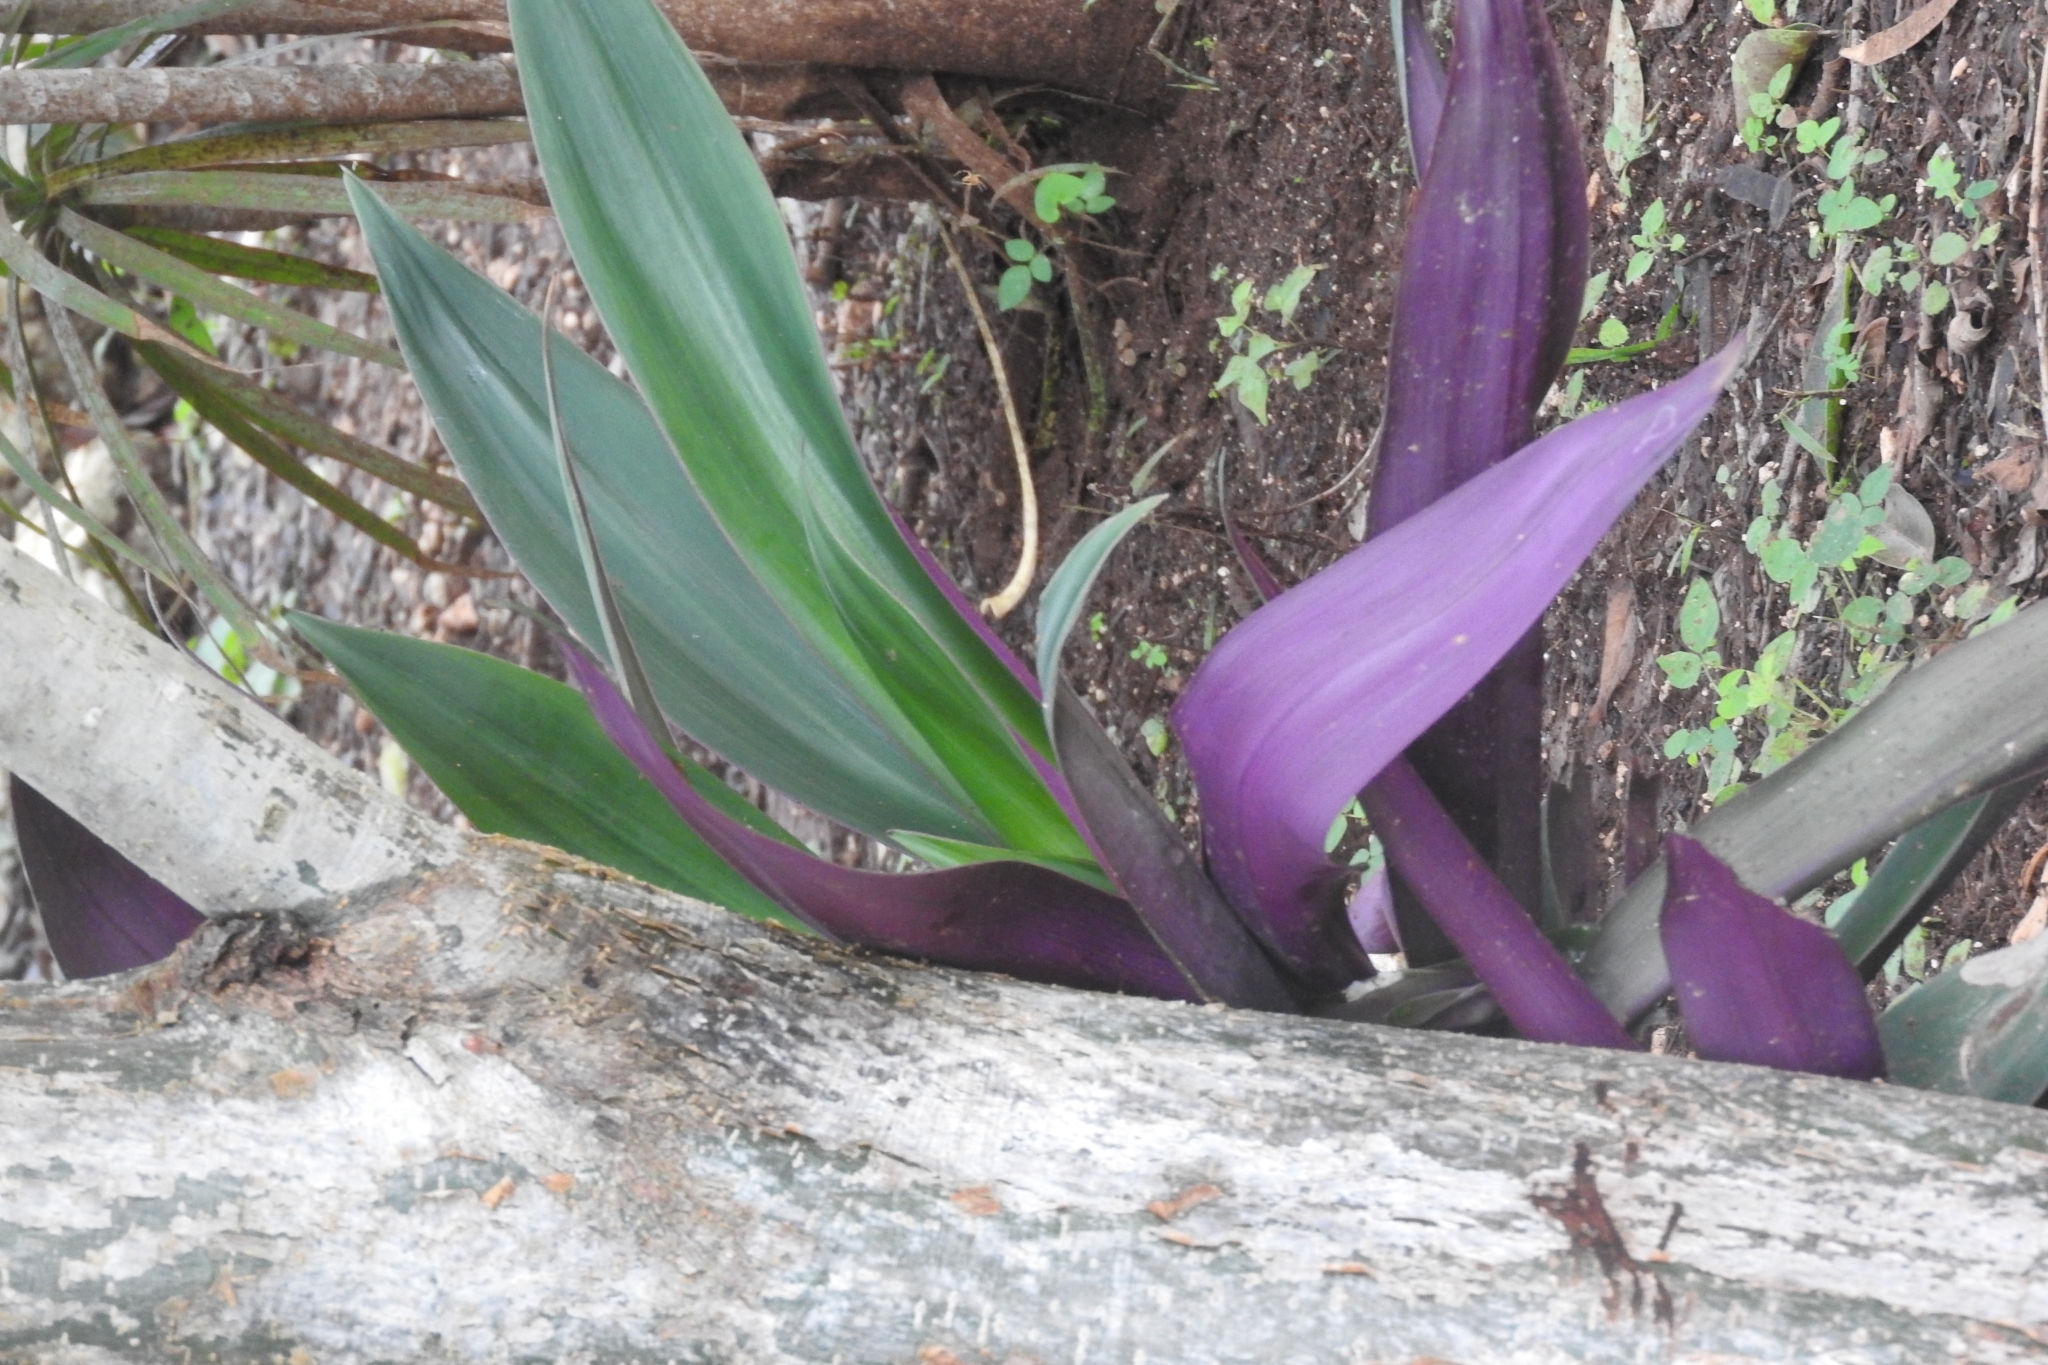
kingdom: Plantae
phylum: Tracheophyta
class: Liliopsida
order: Commelinales
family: Commelinaceae
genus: Tradescantia
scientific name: Tradescantia spathacea
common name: Boatlily
